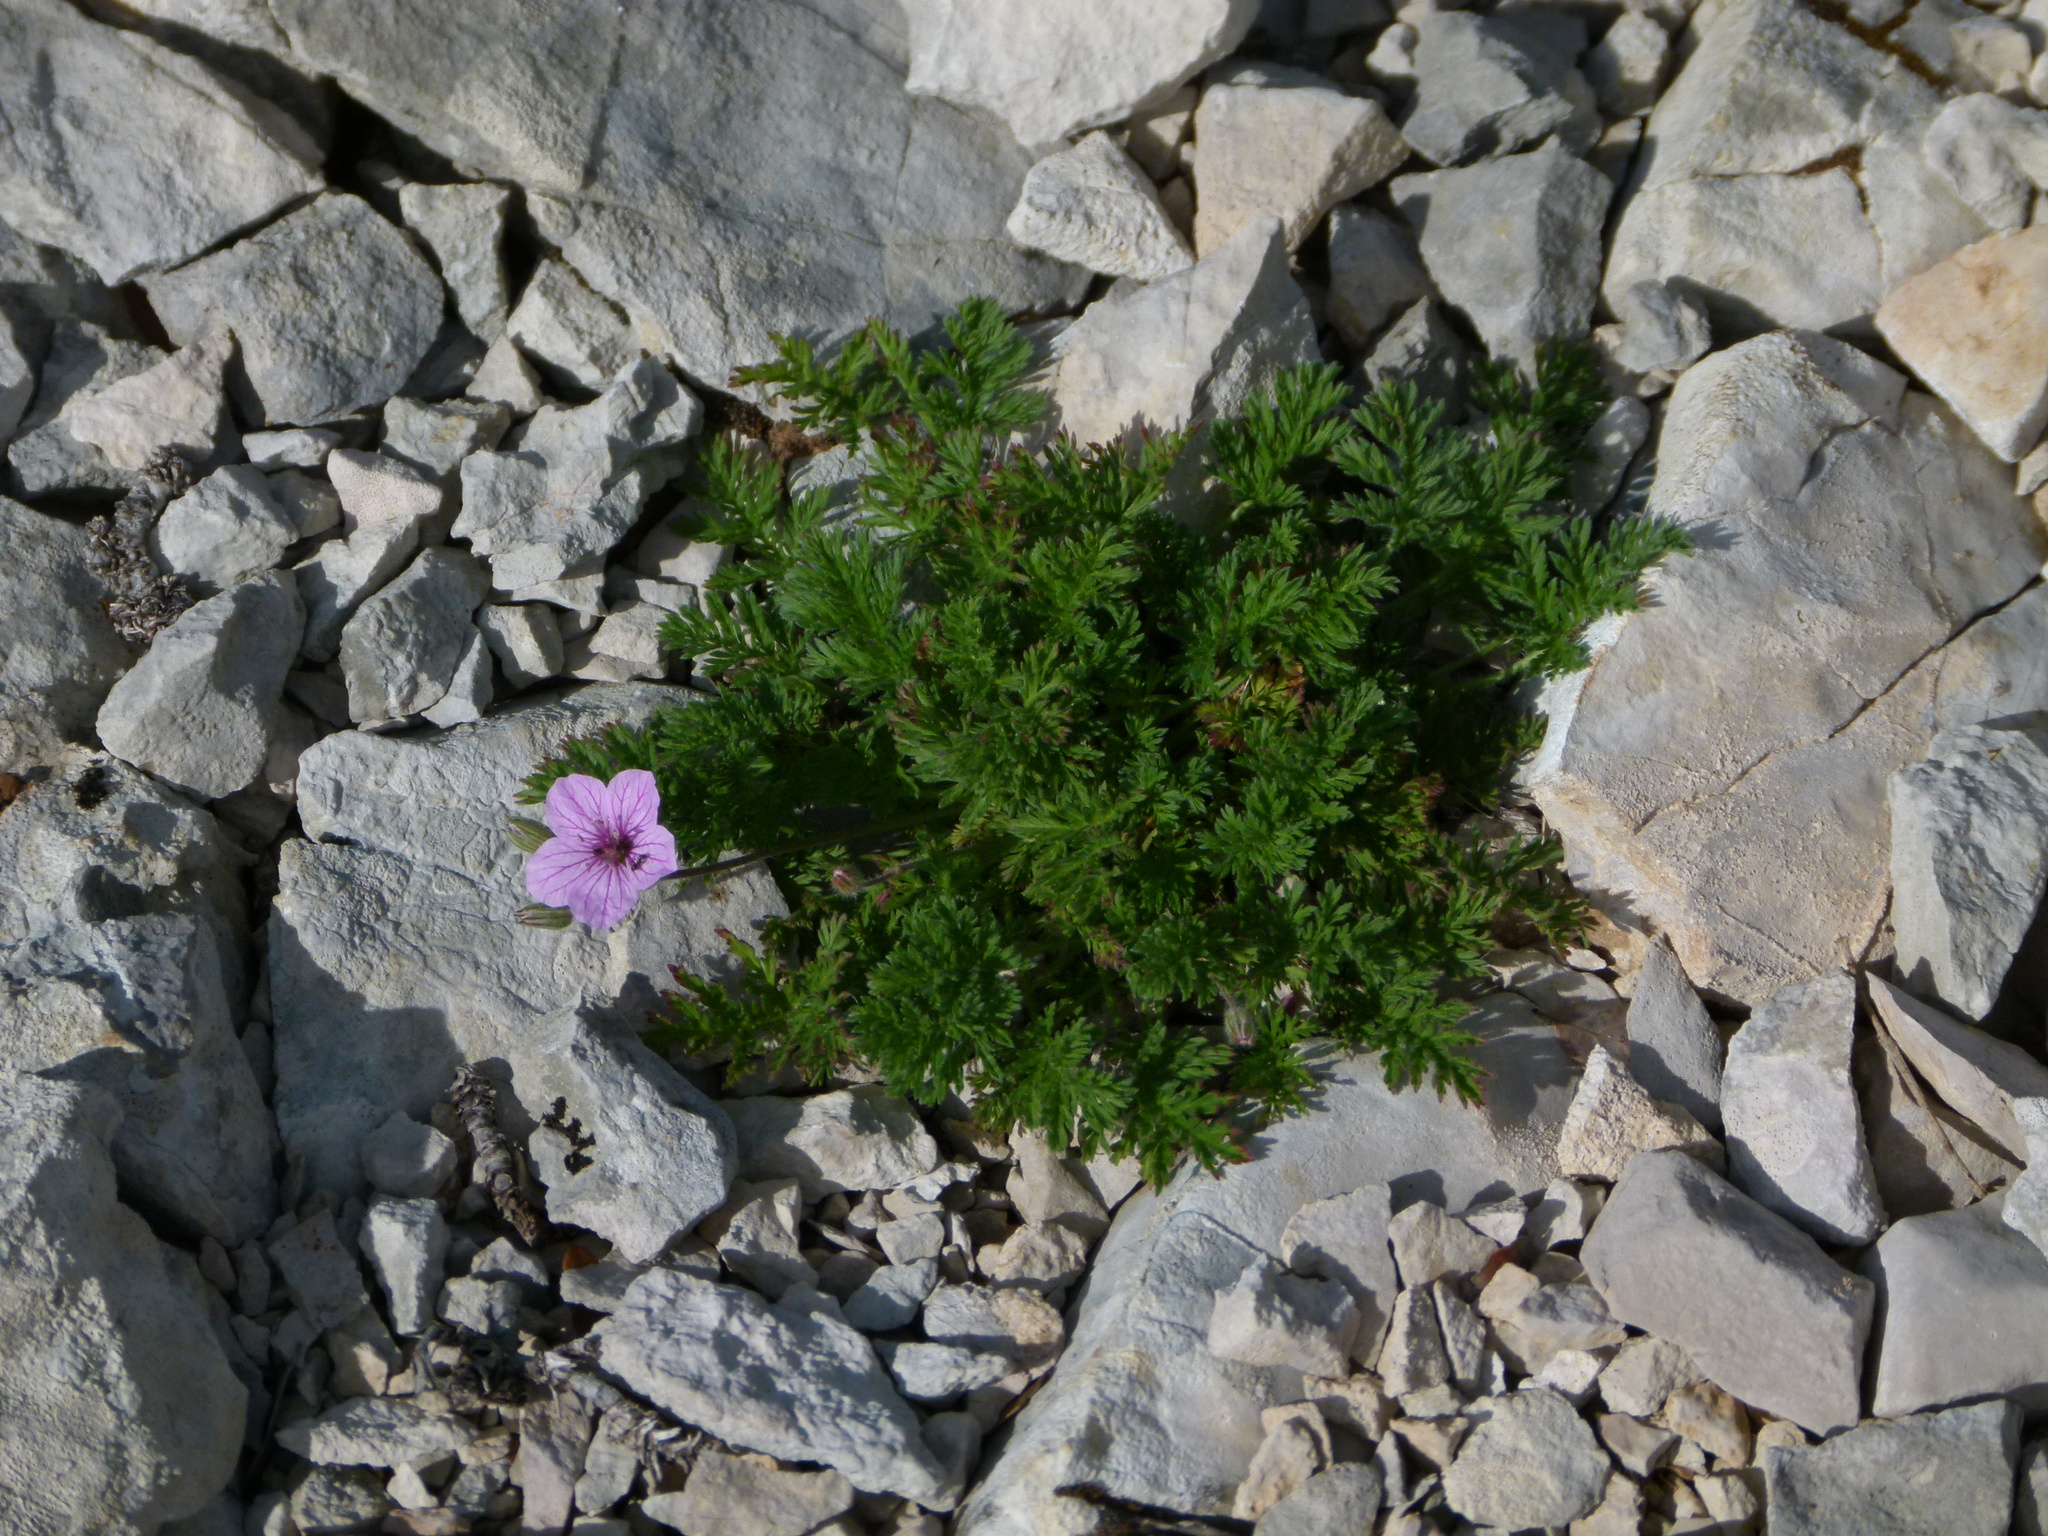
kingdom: Plantae
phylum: Tracheophyta
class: Magnoliopsida
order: Geraniales
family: Geraniaceae
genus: Erodium
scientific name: Erodium foetidum
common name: Rock stork's-bill
